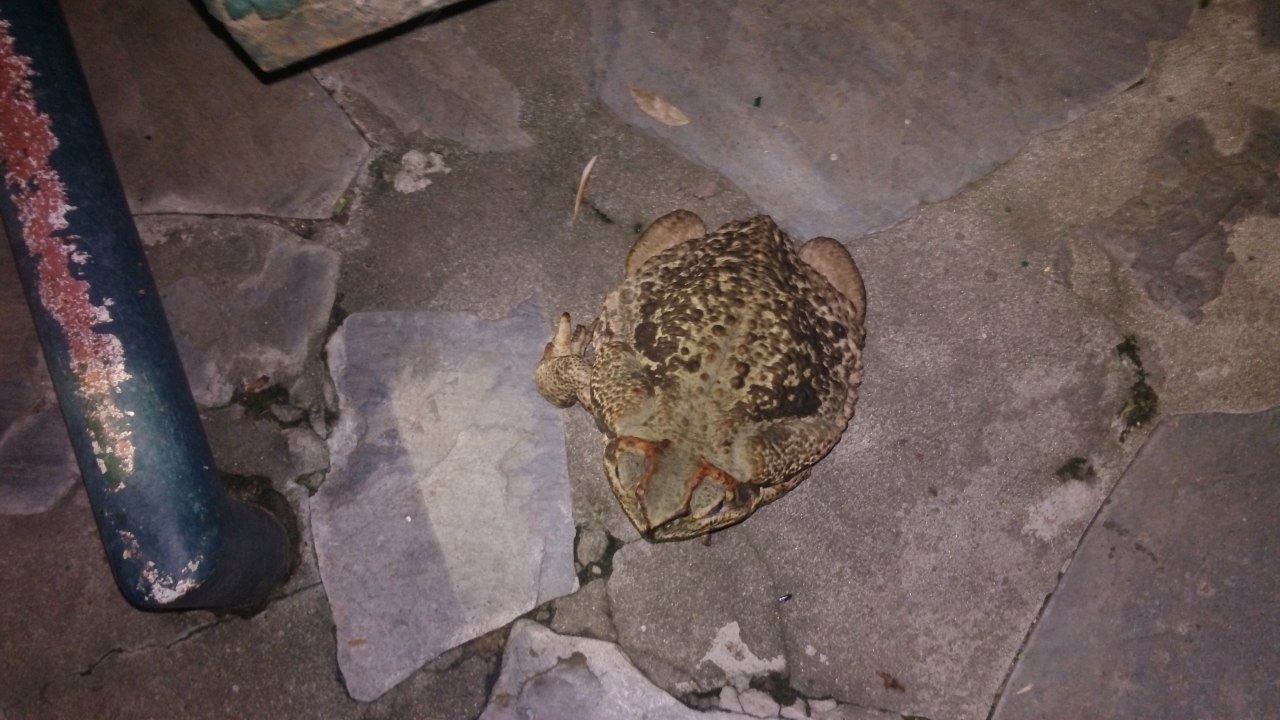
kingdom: Animalia
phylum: Chordata
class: Amphibia
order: Anura
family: Bufonidae
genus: Rhinella
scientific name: Rhinella diptycha
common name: Cope's toad
